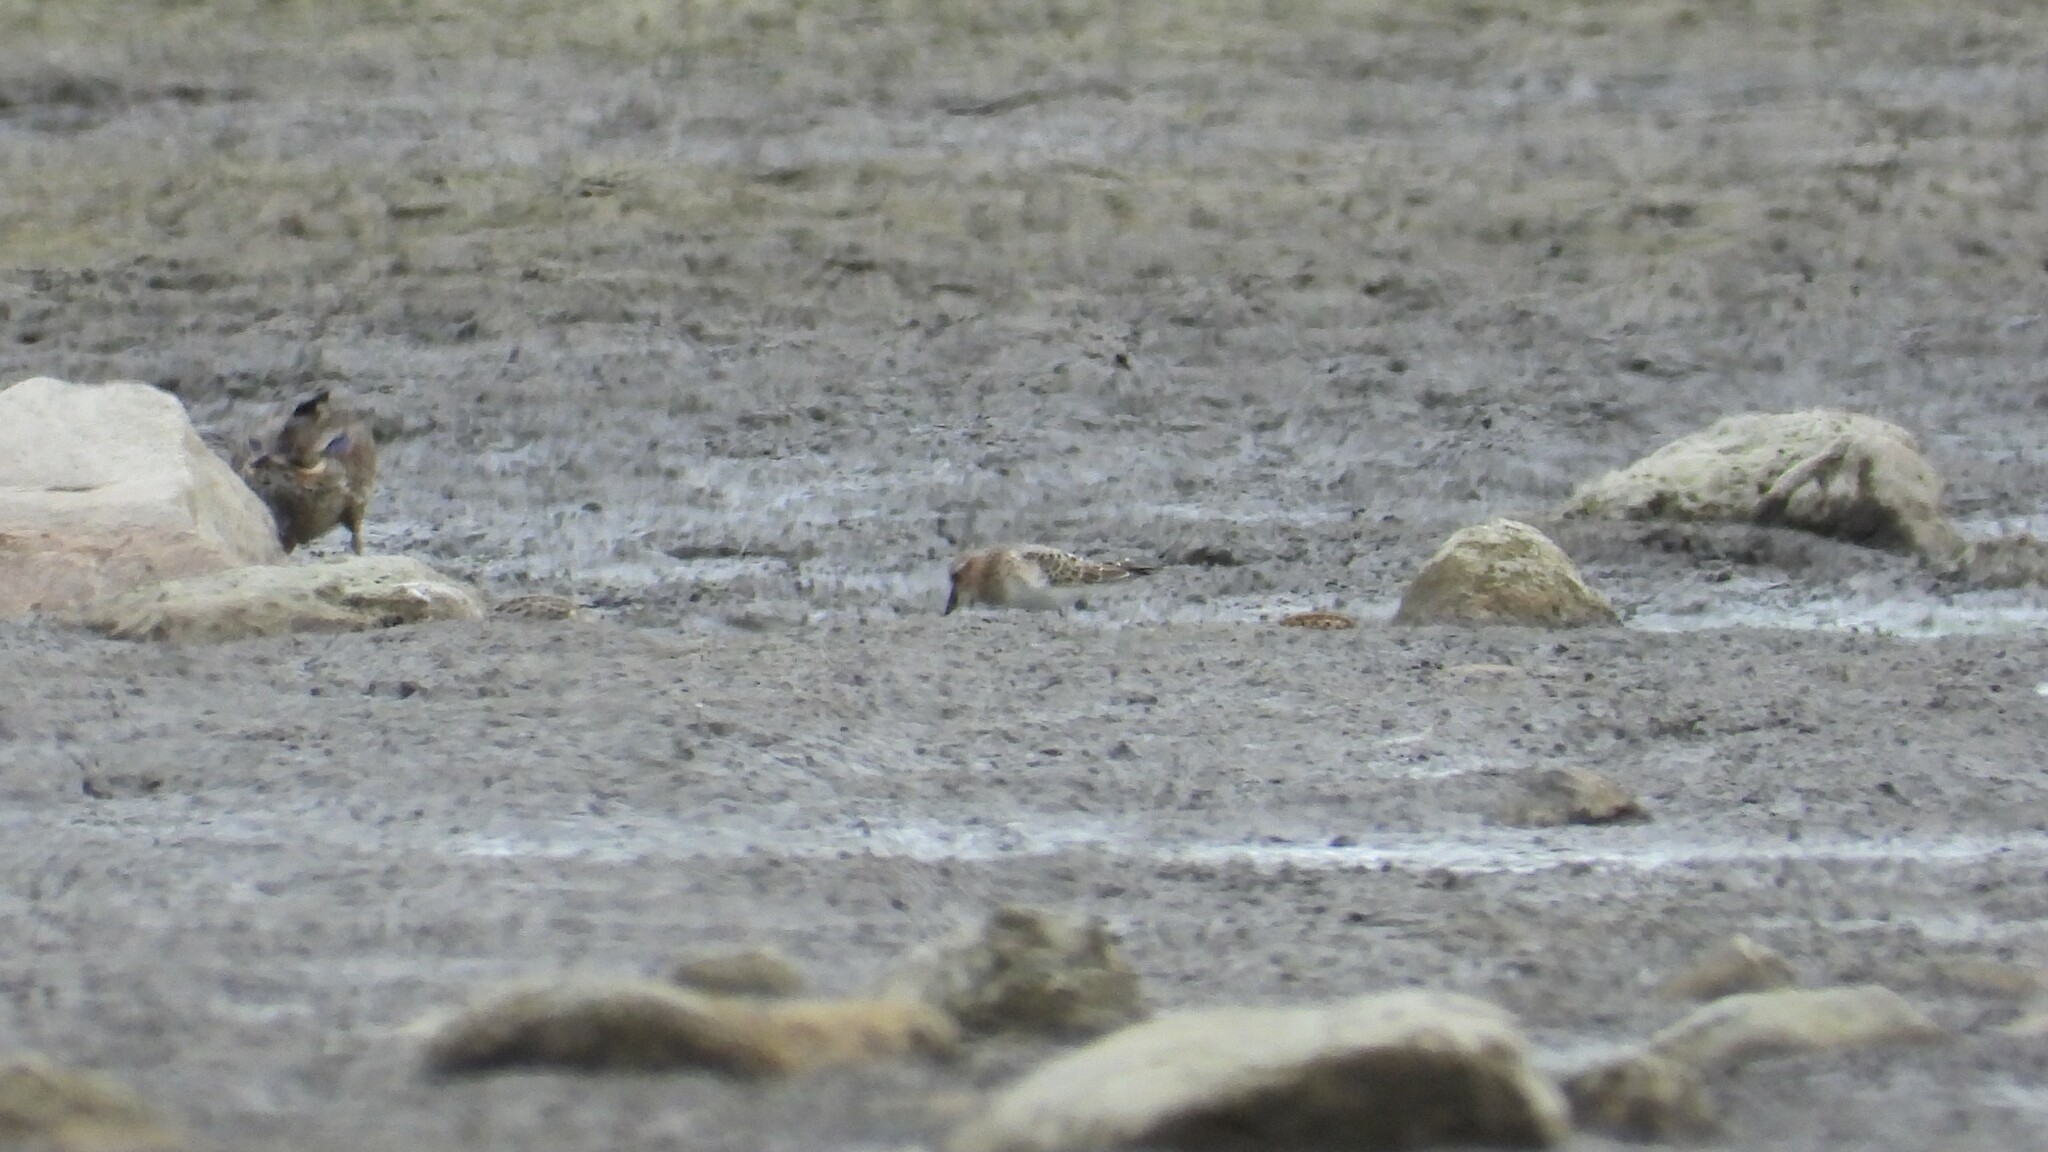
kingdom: Animalia
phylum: Chordata
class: Aves
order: Charadriiformes
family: Scolopacidae
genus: Calidris
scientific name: Calidris bairdii
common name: Baird's sandpiper
